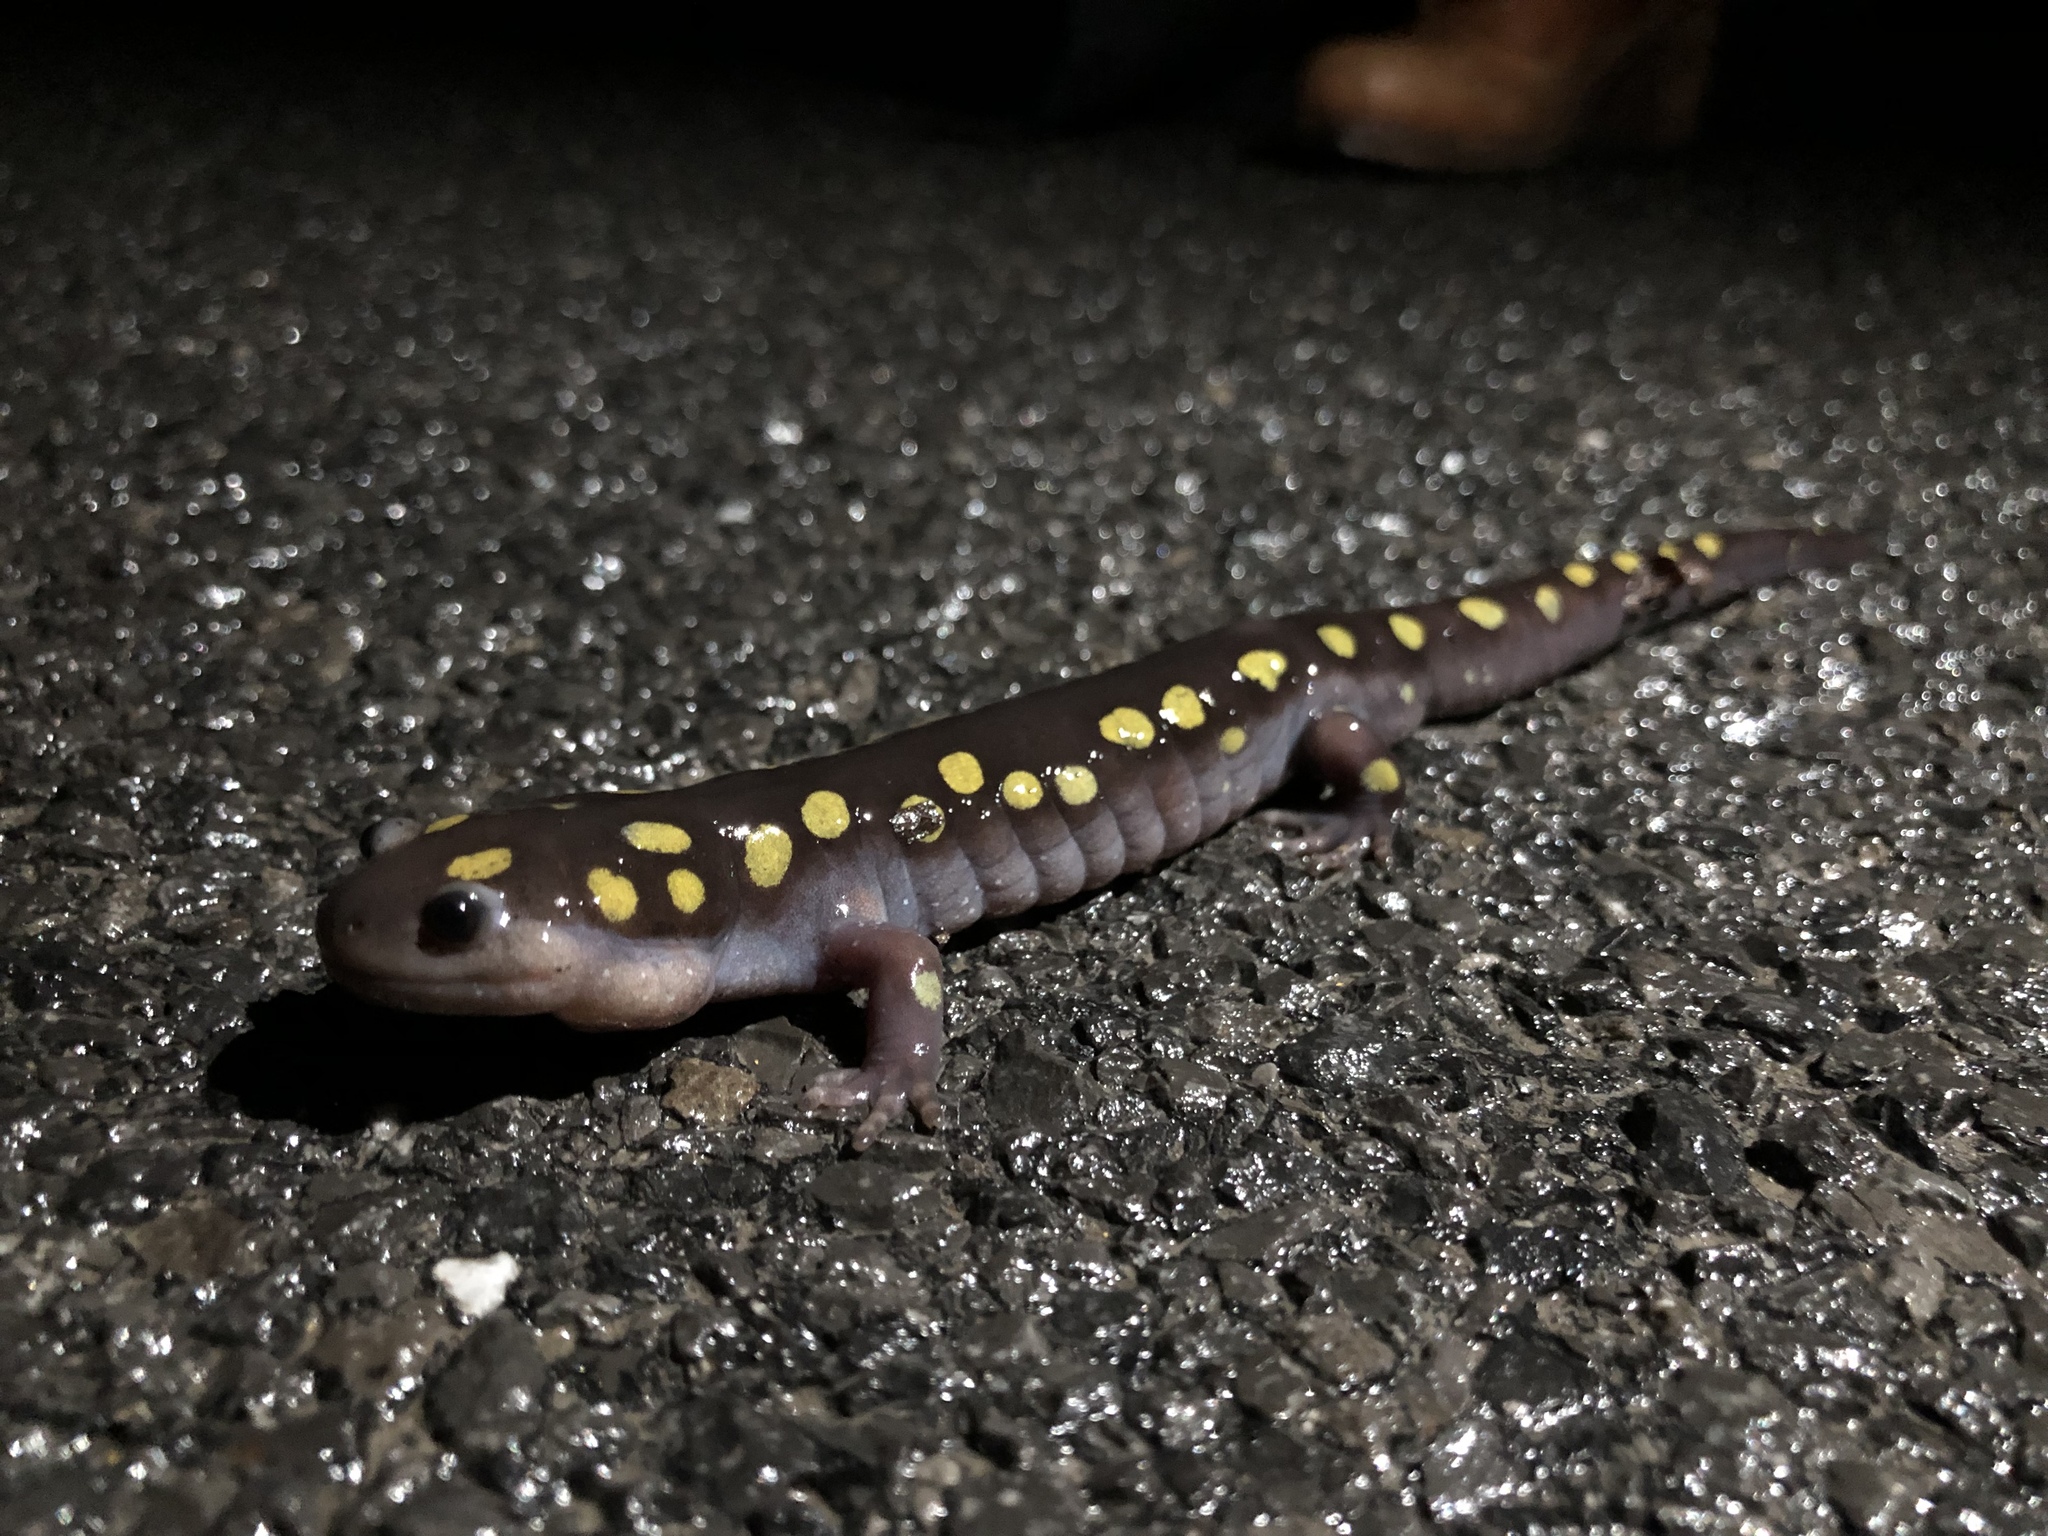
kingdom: Animalia
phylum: Chordata
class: Amphibia
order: Caudata
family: Ambystomatidae
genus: Ambystoma
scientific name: Ambystoma maculatum
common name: Spotted salamander
